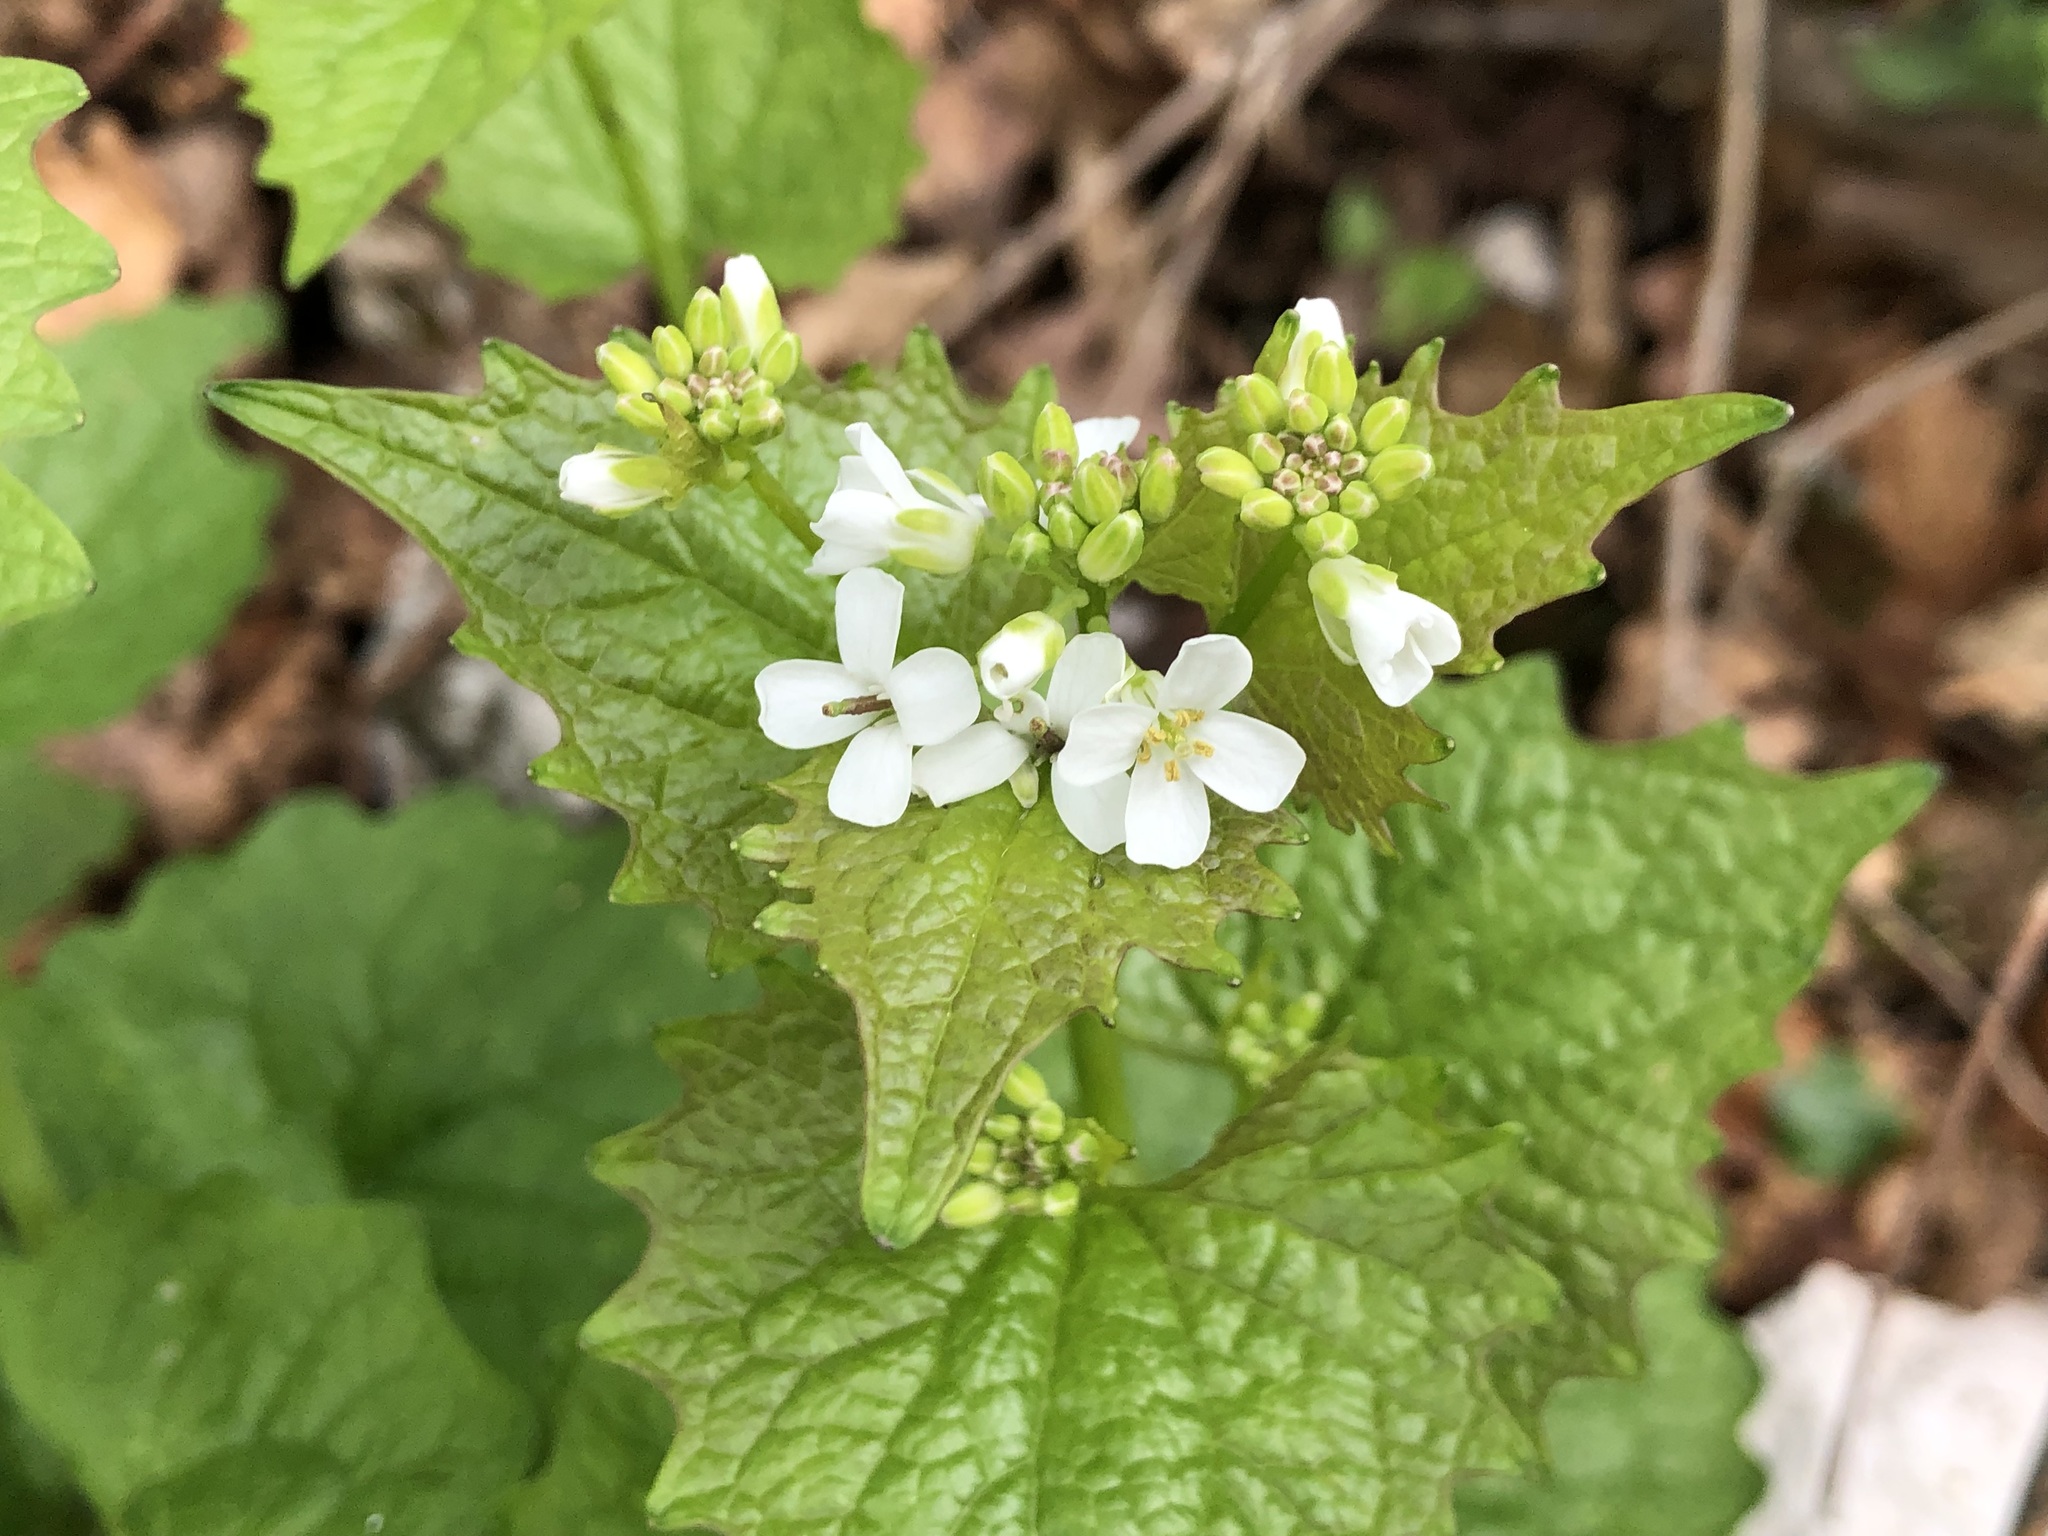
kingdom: Plantae
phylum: Tracheophyta
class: Magnoliopsida
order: Brassicales
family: Brassicaceae
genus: Alliaria
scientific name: Alliaria petiolata
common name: Garlic mustard
